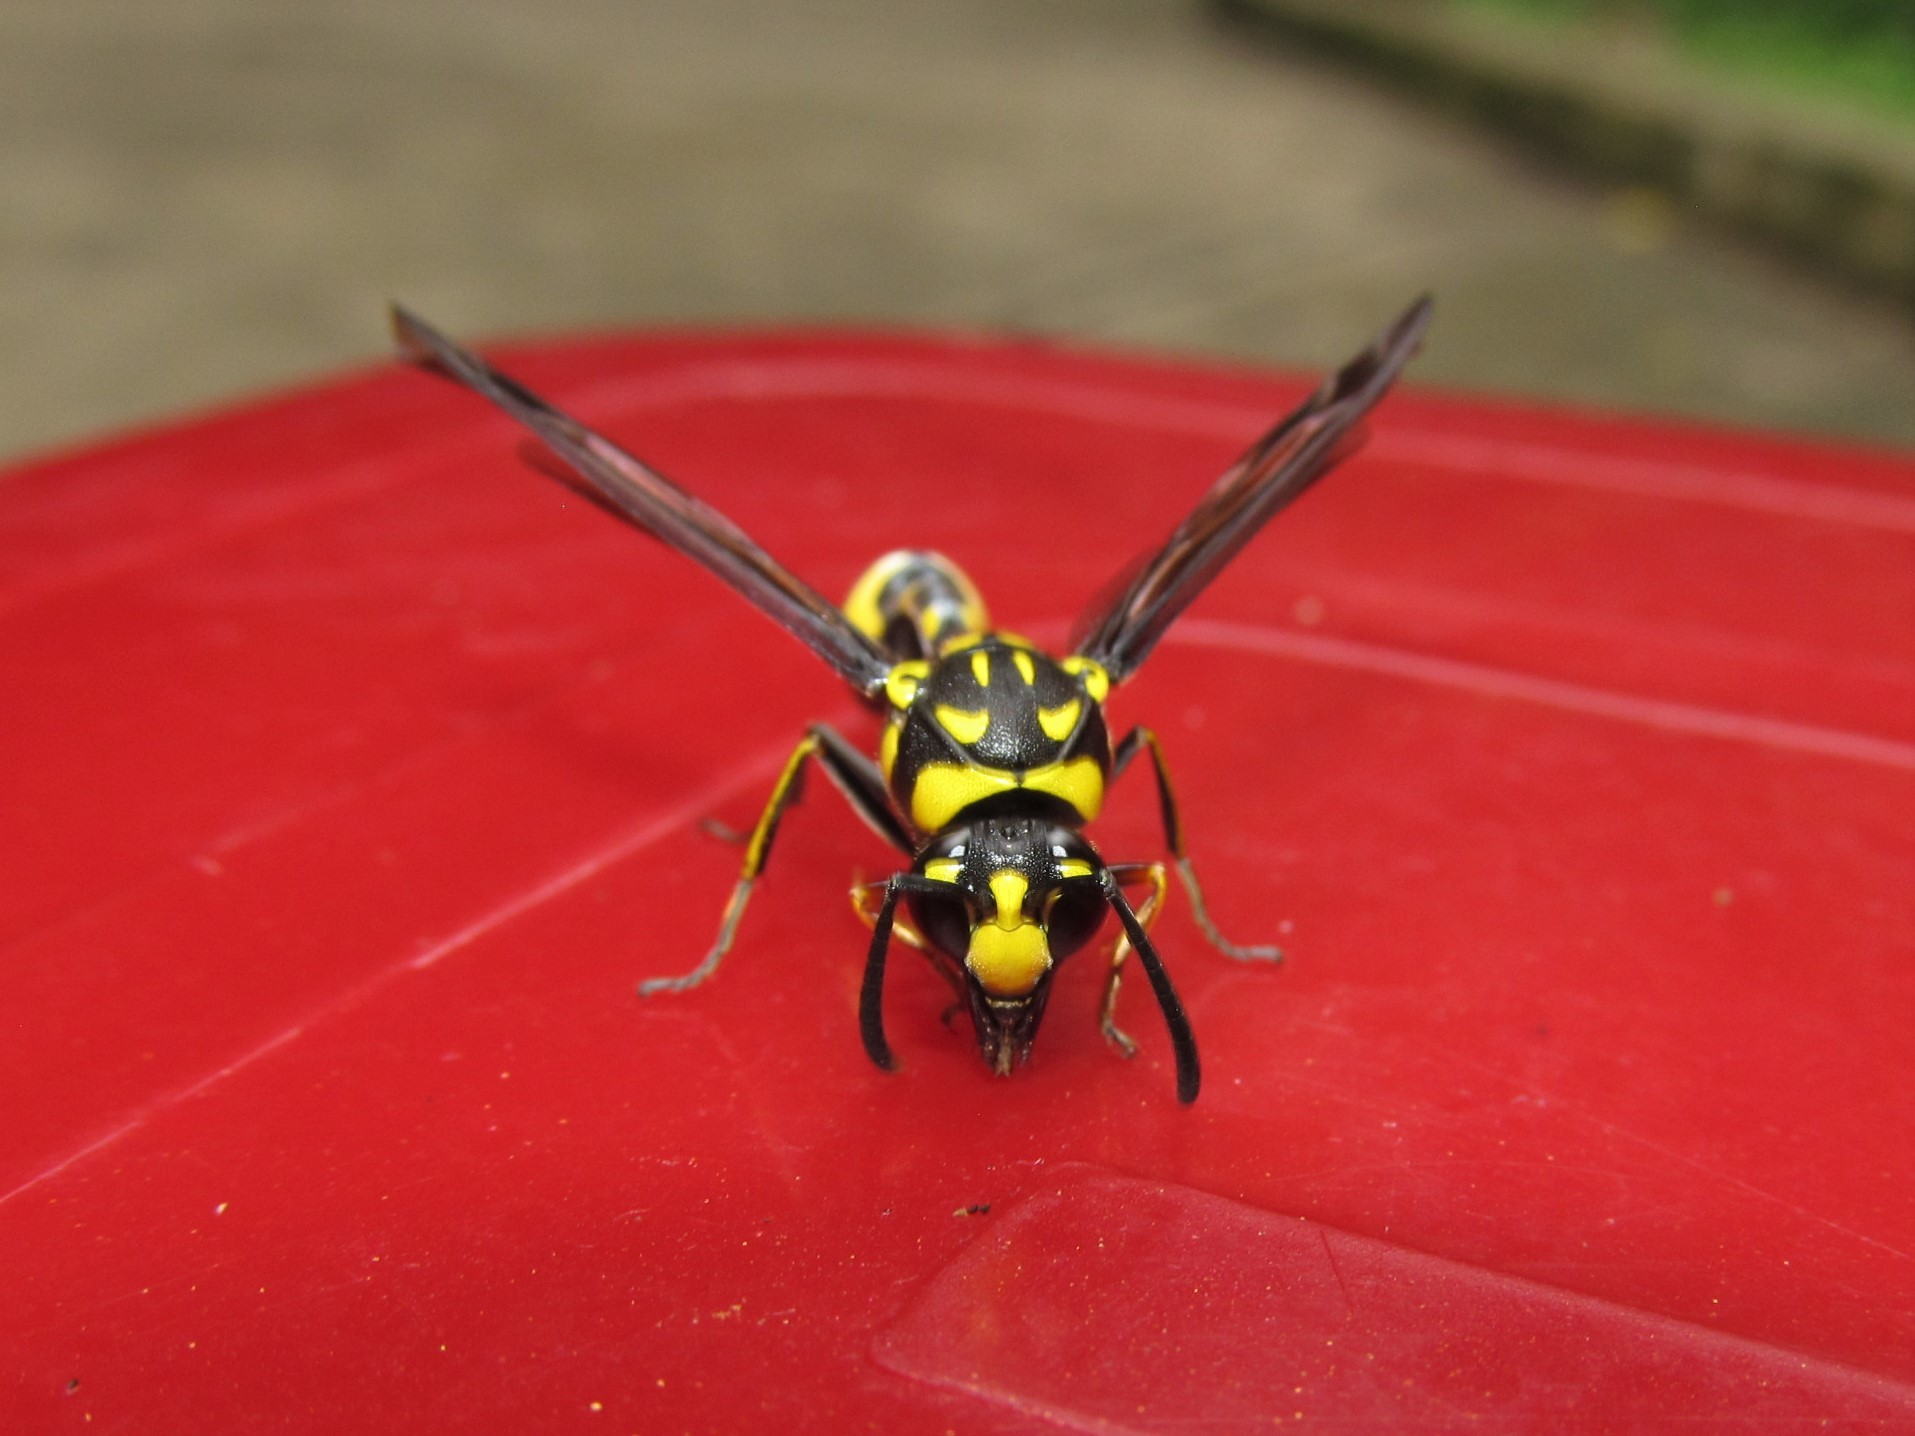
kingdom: Animalia
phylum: Arthropoda
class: Insecta
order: Hymenoptera
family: Eumenidae
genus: Phimenes
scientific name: Phimenes flavopictus
